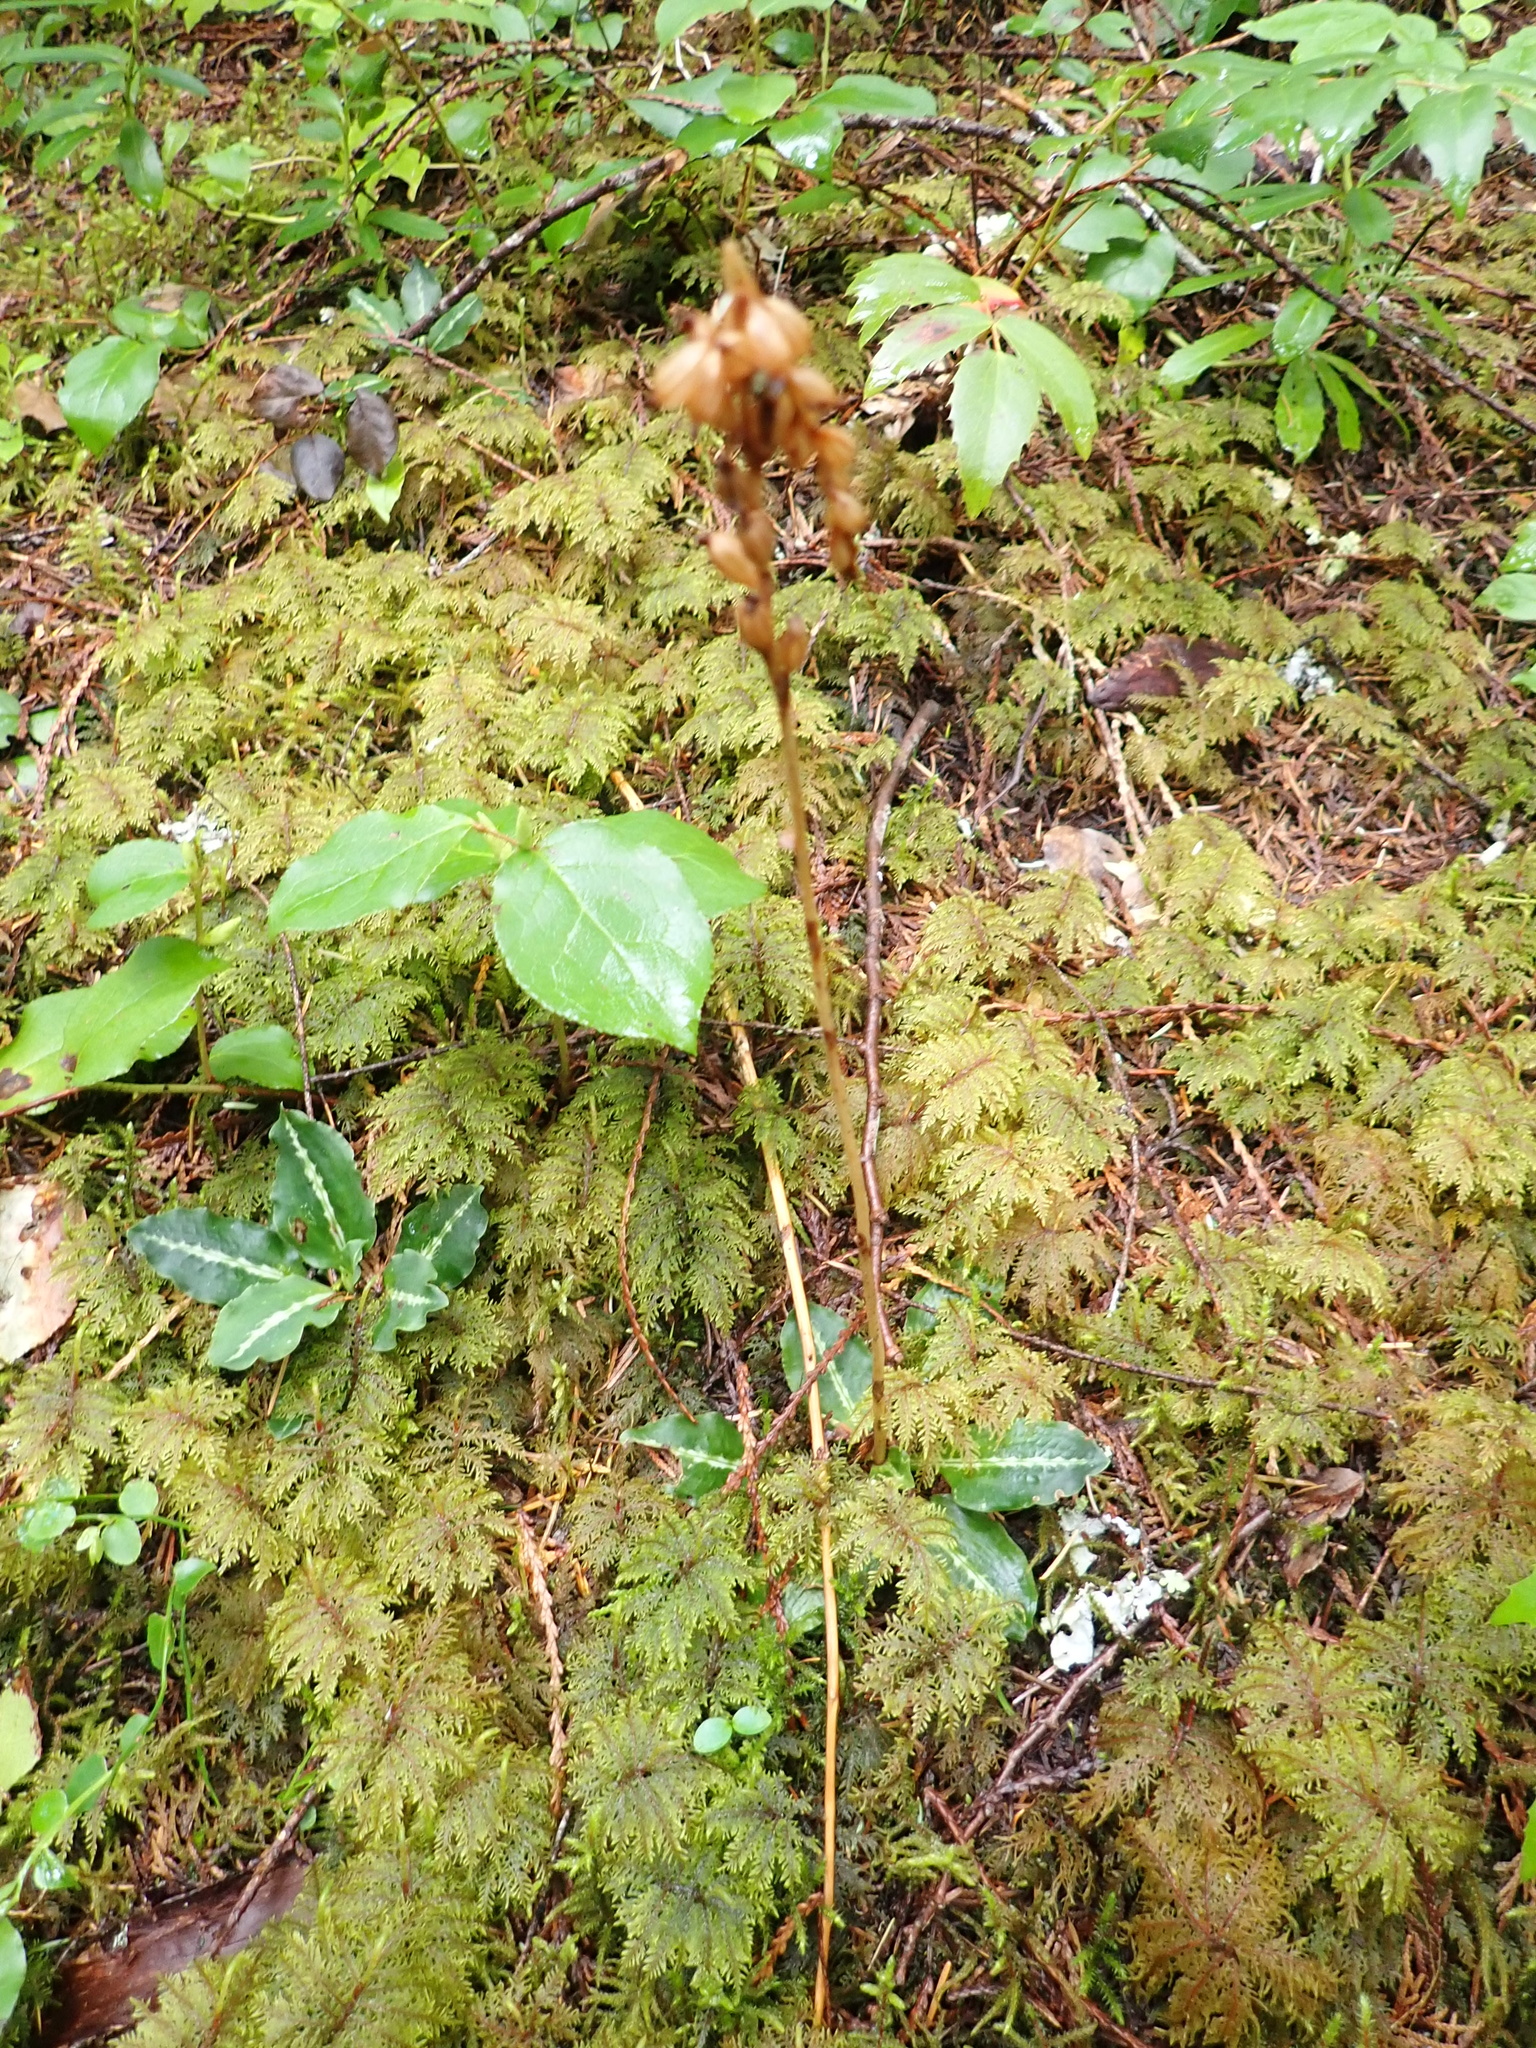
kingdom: Plantae
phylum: Tracheophyta
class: Liliopsida
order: Asparagales
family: Orchidaceae
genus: Goodyera
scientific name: Goodyera oblongifolia
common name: Giant rattlesnake-plantain
